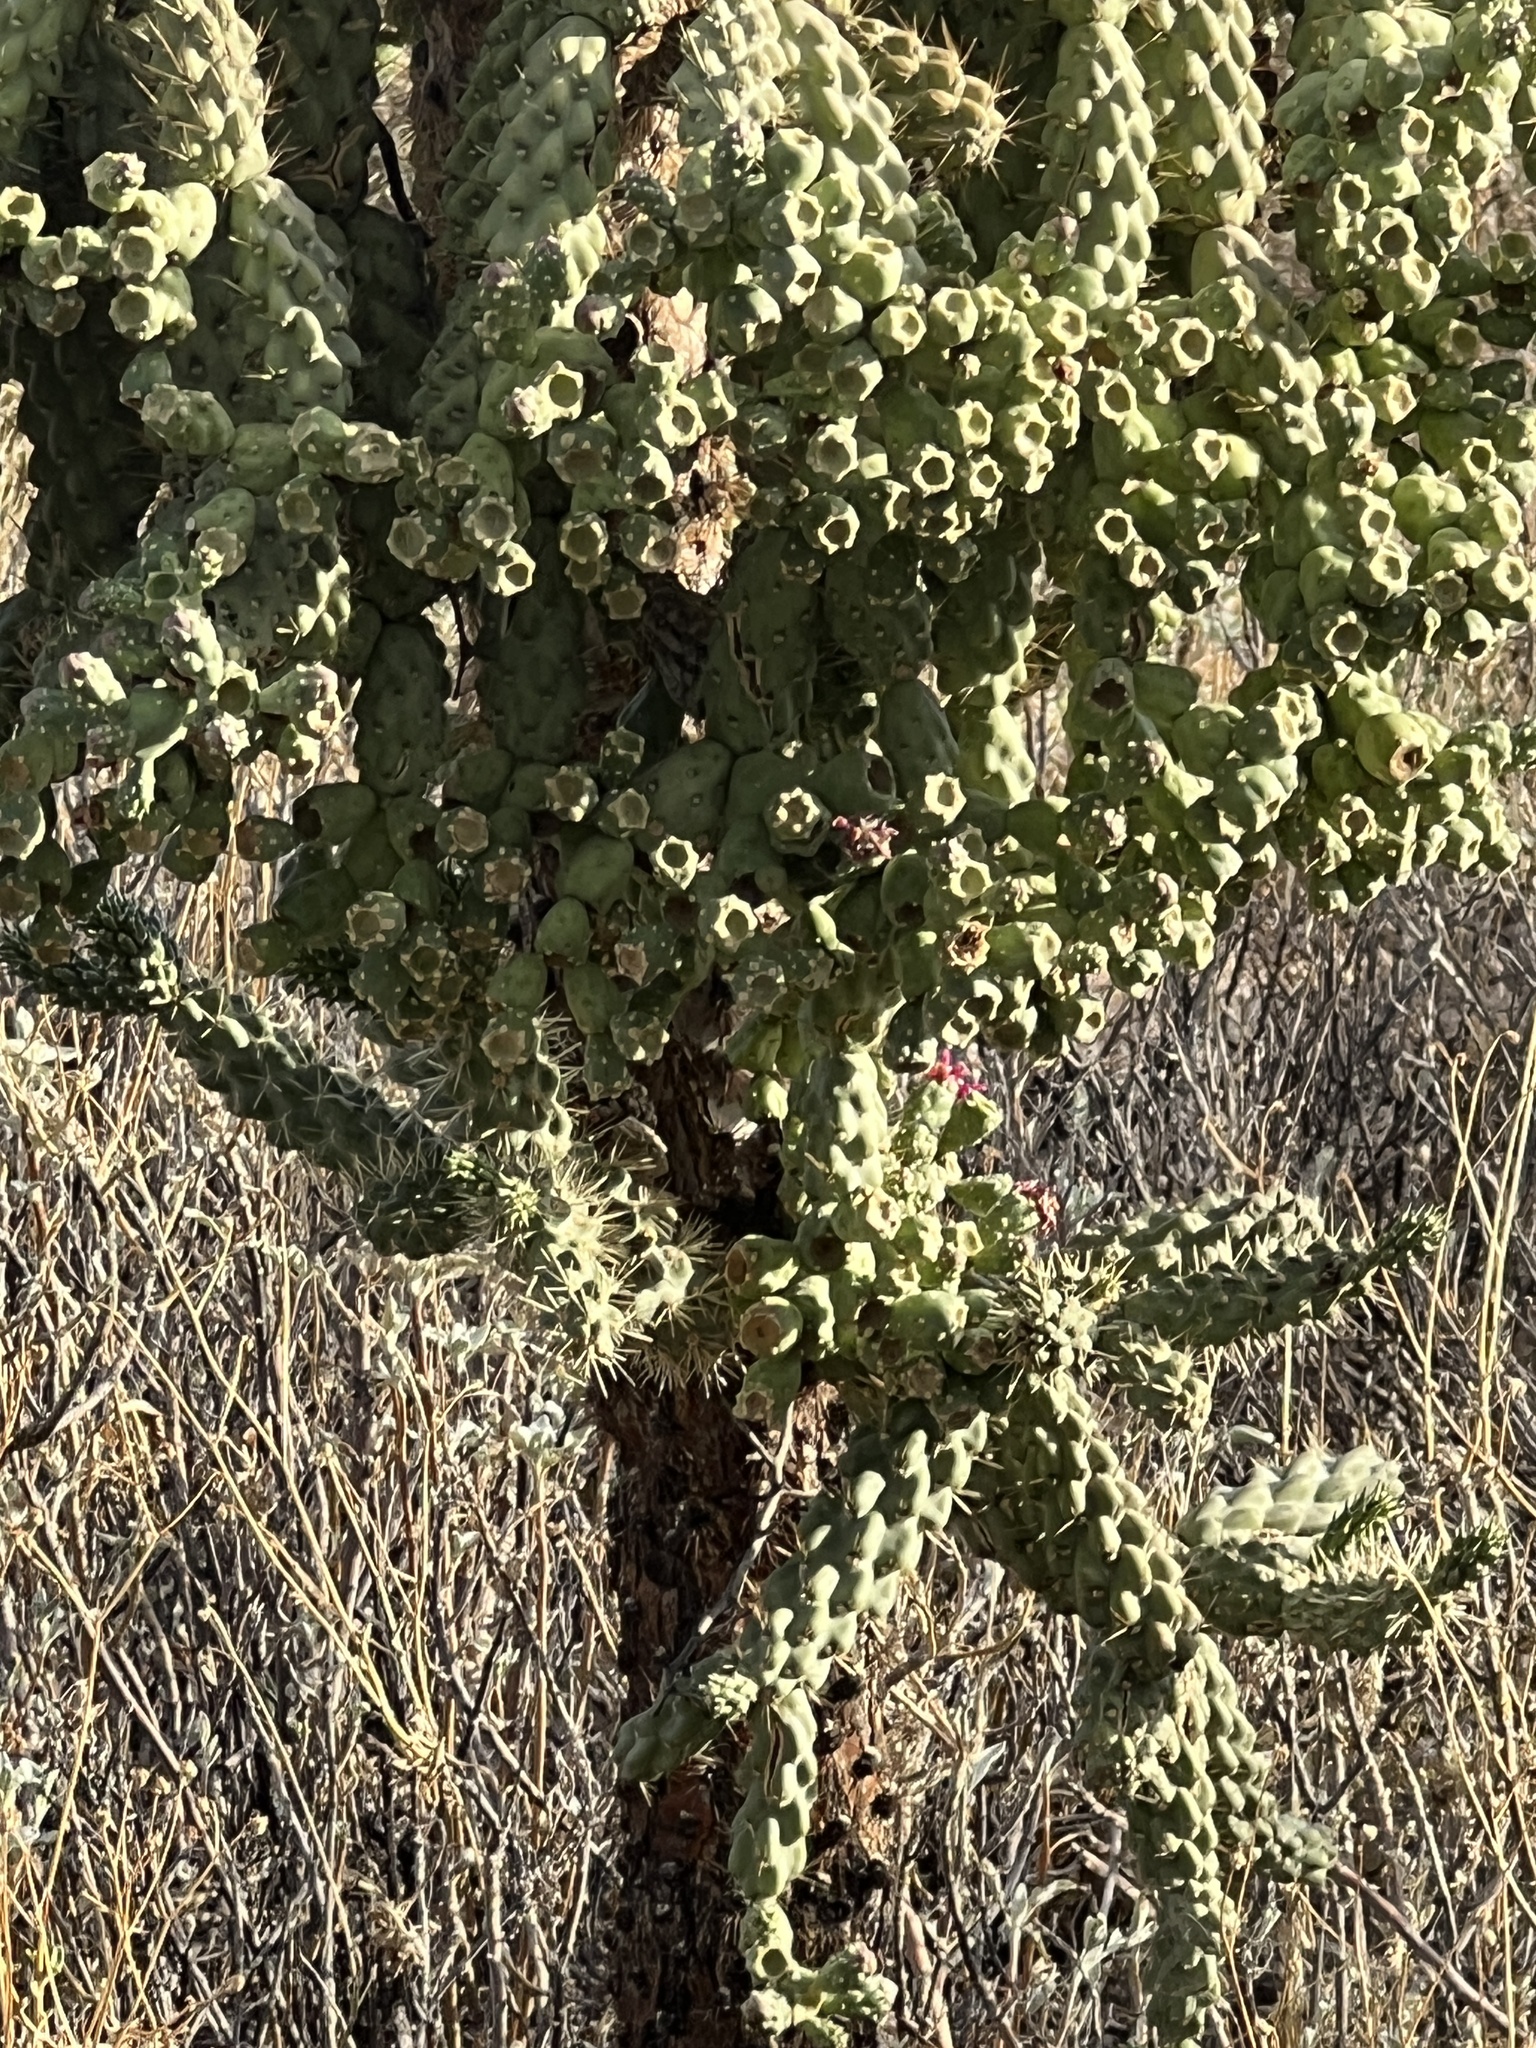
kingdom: Plantae
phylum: Tracheophyta
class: Magnoliopsida
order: Caryophyllales
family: Cactaceae
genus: Cylindropuntia
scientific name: Cylindropuntia fulgida
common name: Jumping cholla
